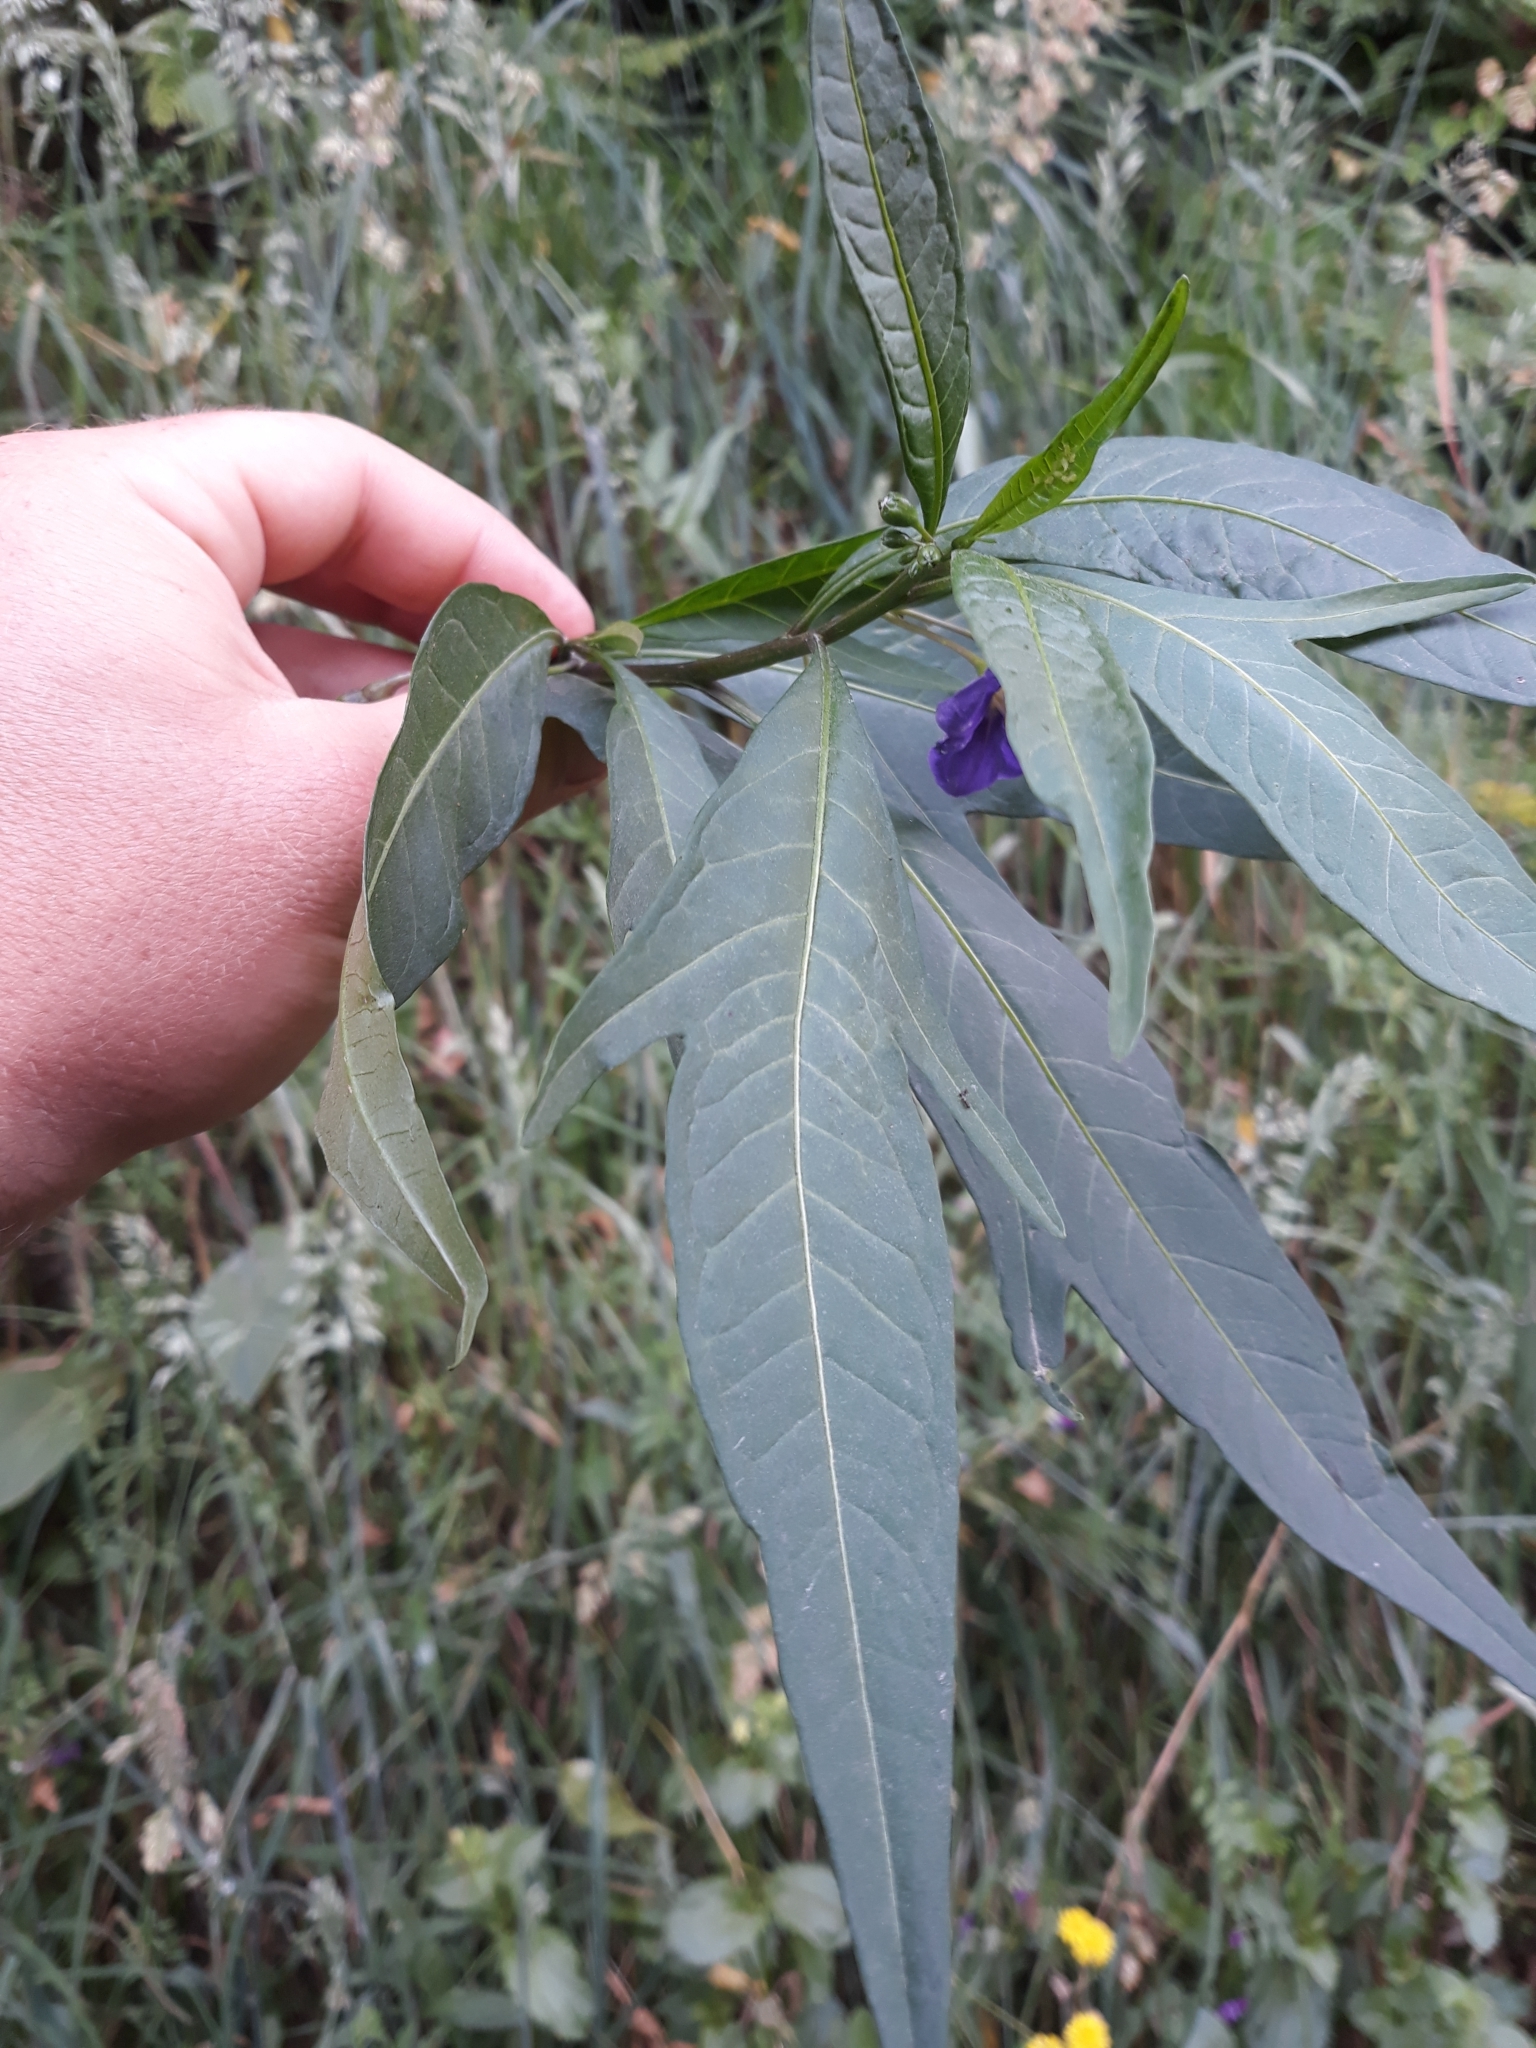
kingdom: Plantae
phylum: Tracheophyta
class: Magnoliopsida
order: Solanales
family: Solanaceae
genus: Solanum
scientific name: Solanum laciniatum
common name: Kangaroo-apple
